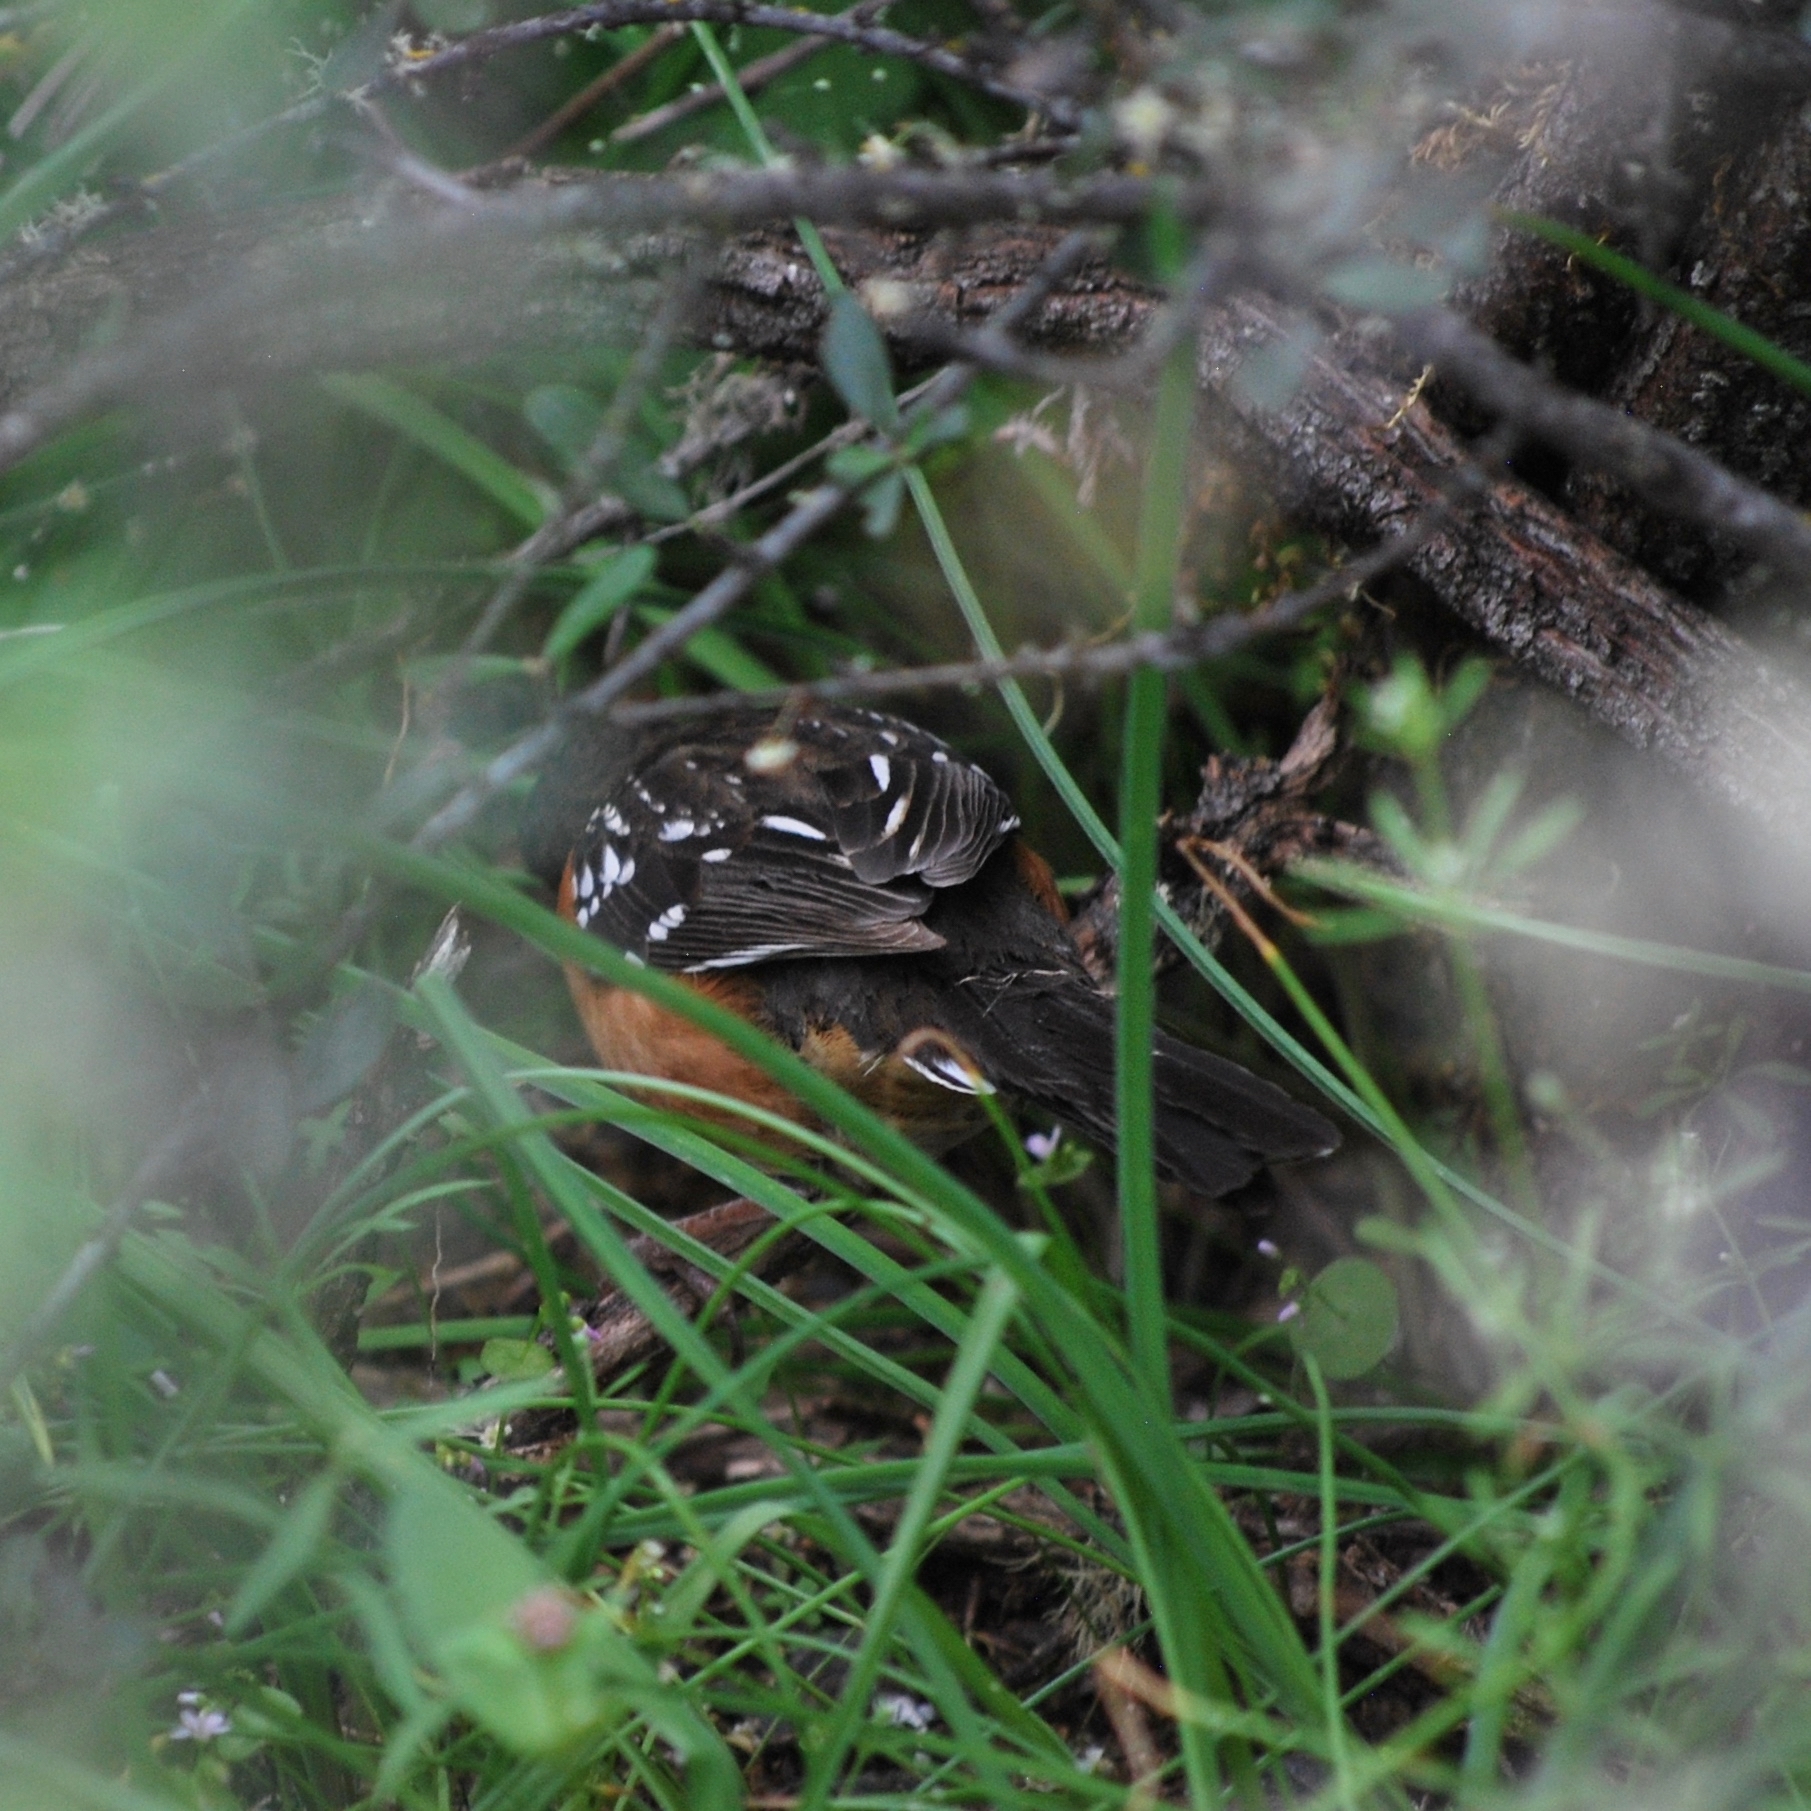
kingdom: Animalia
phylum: Chordata
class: Aves
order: Passeriformes
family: Passerellidae
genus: Pipilo
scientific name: Pipilo maculatus
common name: Spotted towhee
